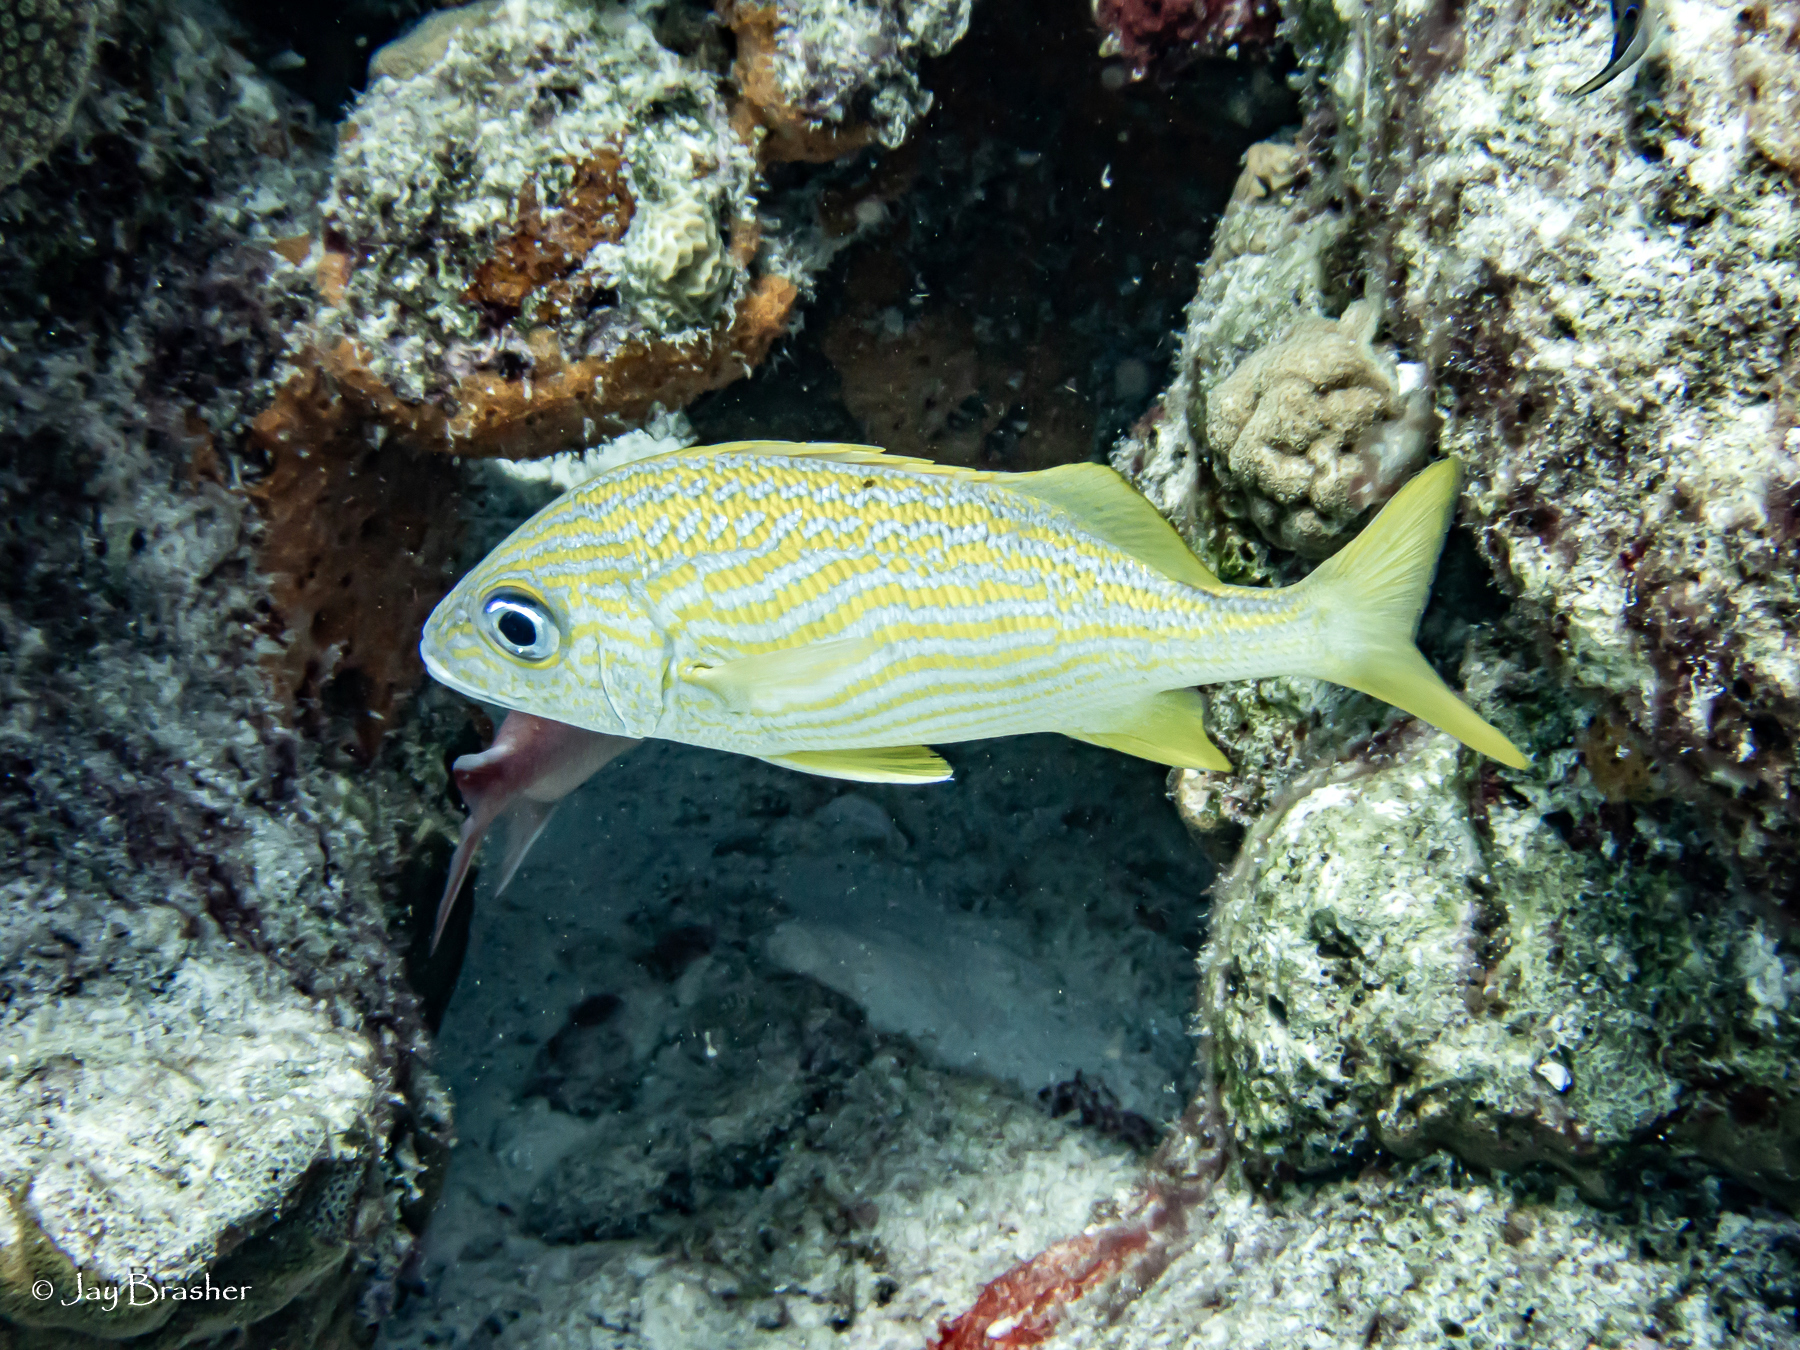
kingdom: Animalia
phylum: Chordata
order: Perciformes
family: Haemulidae
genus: Haemulon
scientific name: Haemulon flavolineatum
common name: French grunt
